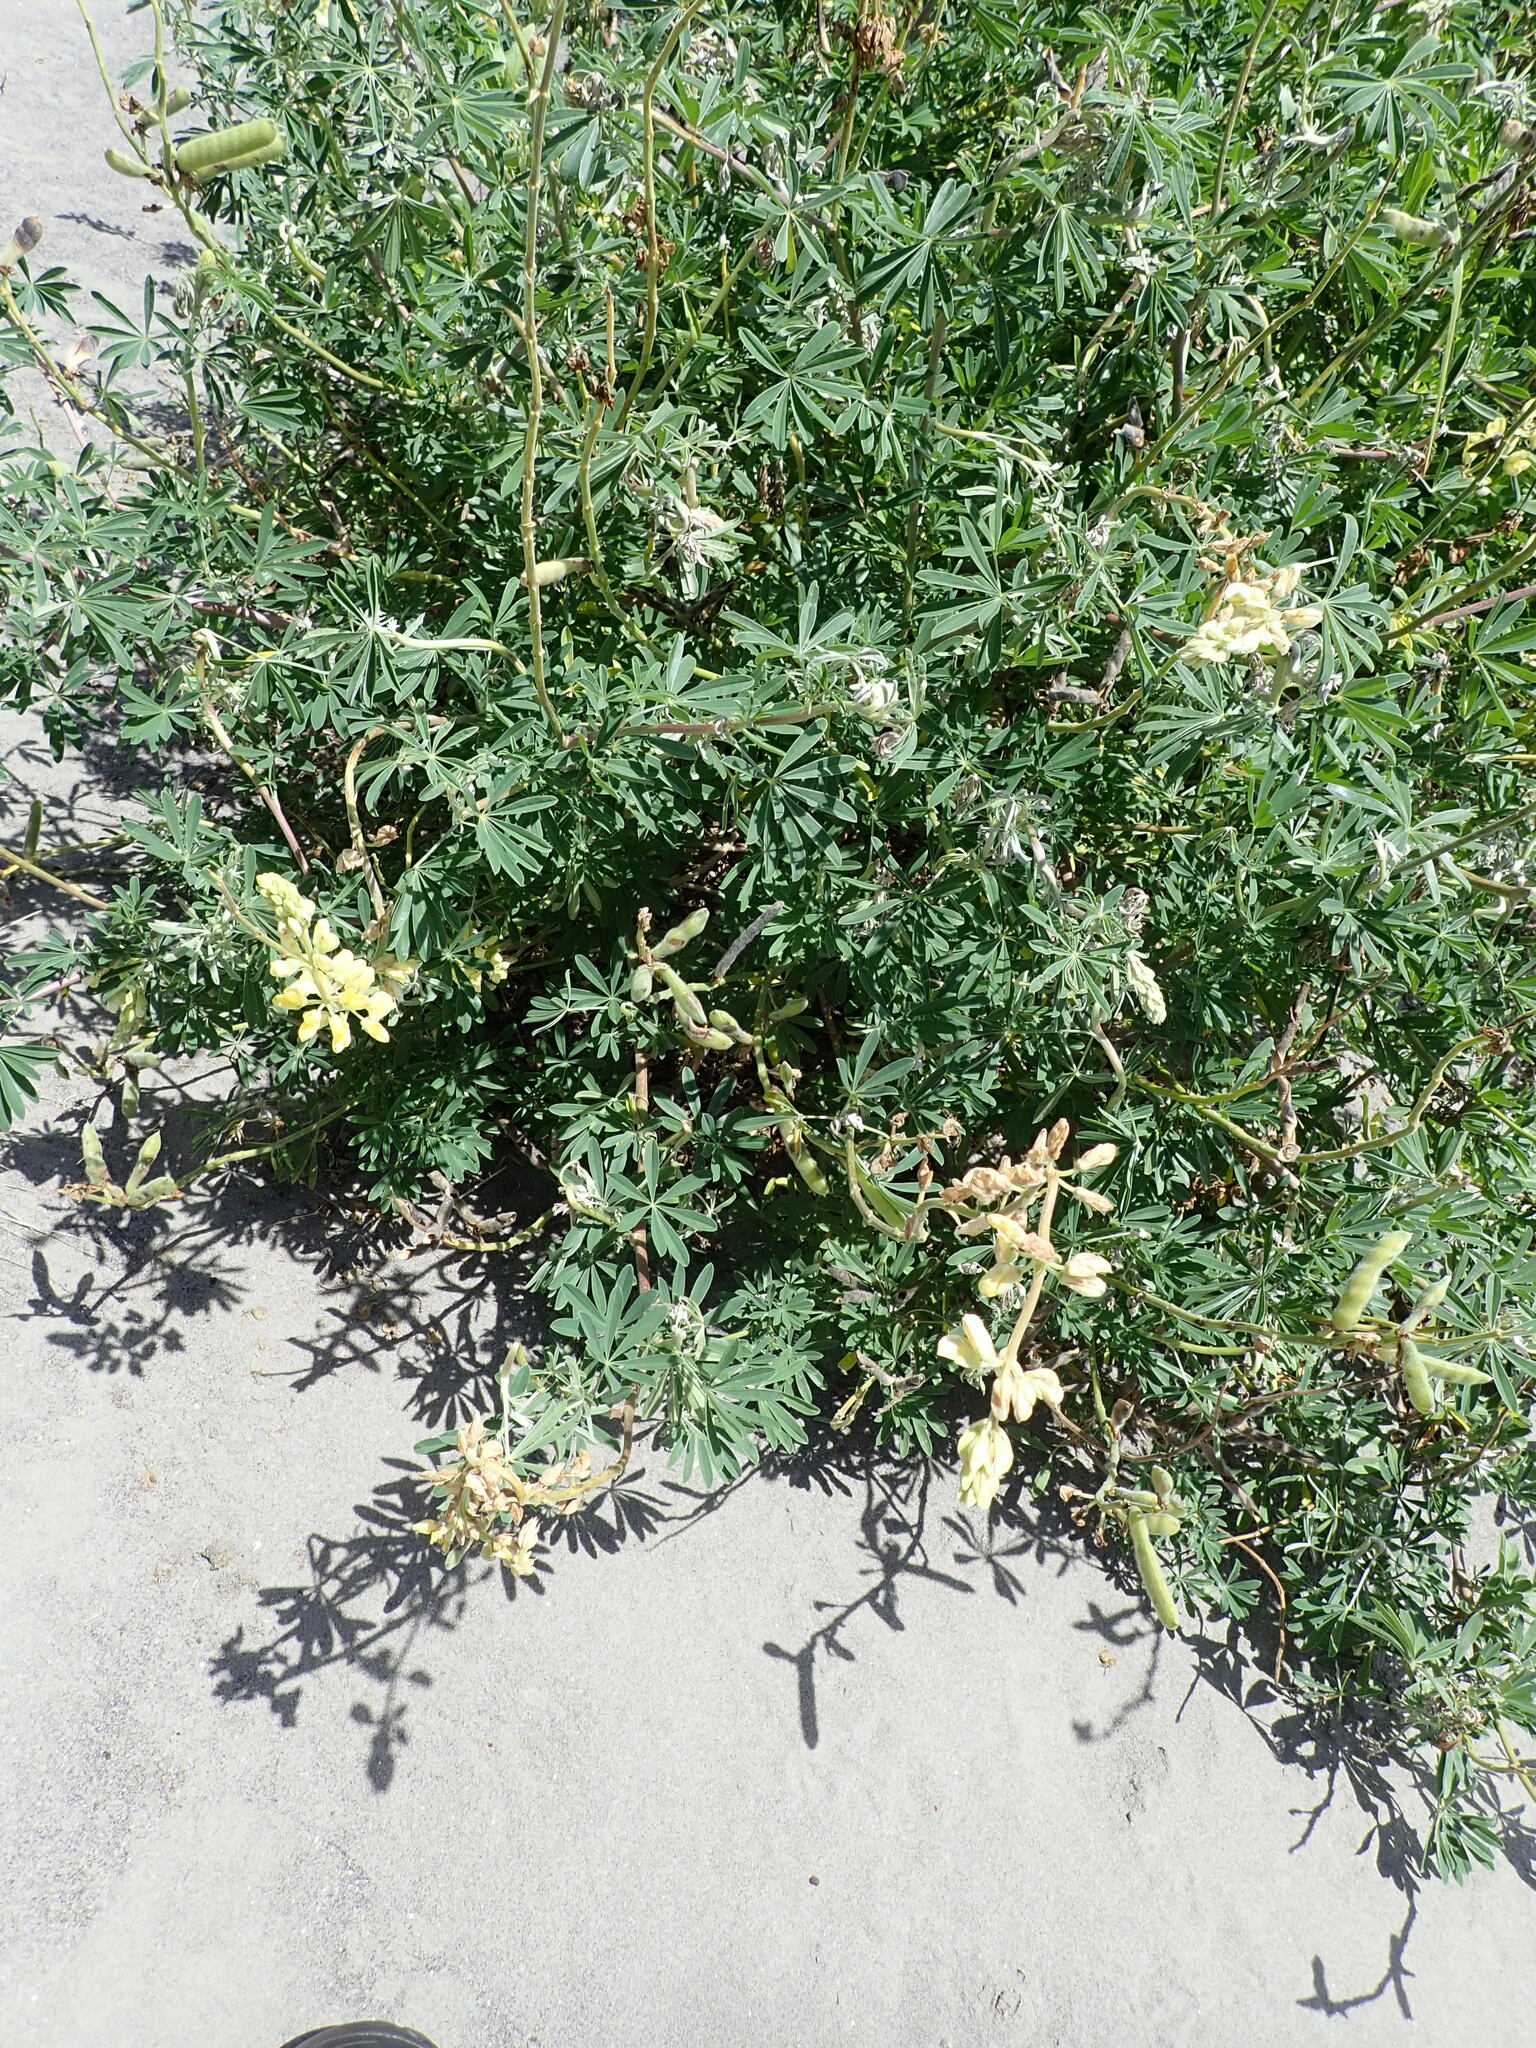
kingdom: Plantae
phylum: Tracheophyta
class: Magnoliopsida
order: Fabales
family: Fabaceae
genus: Lupinus
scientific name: Lupinus arboreus
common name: Yellow bush lupine
